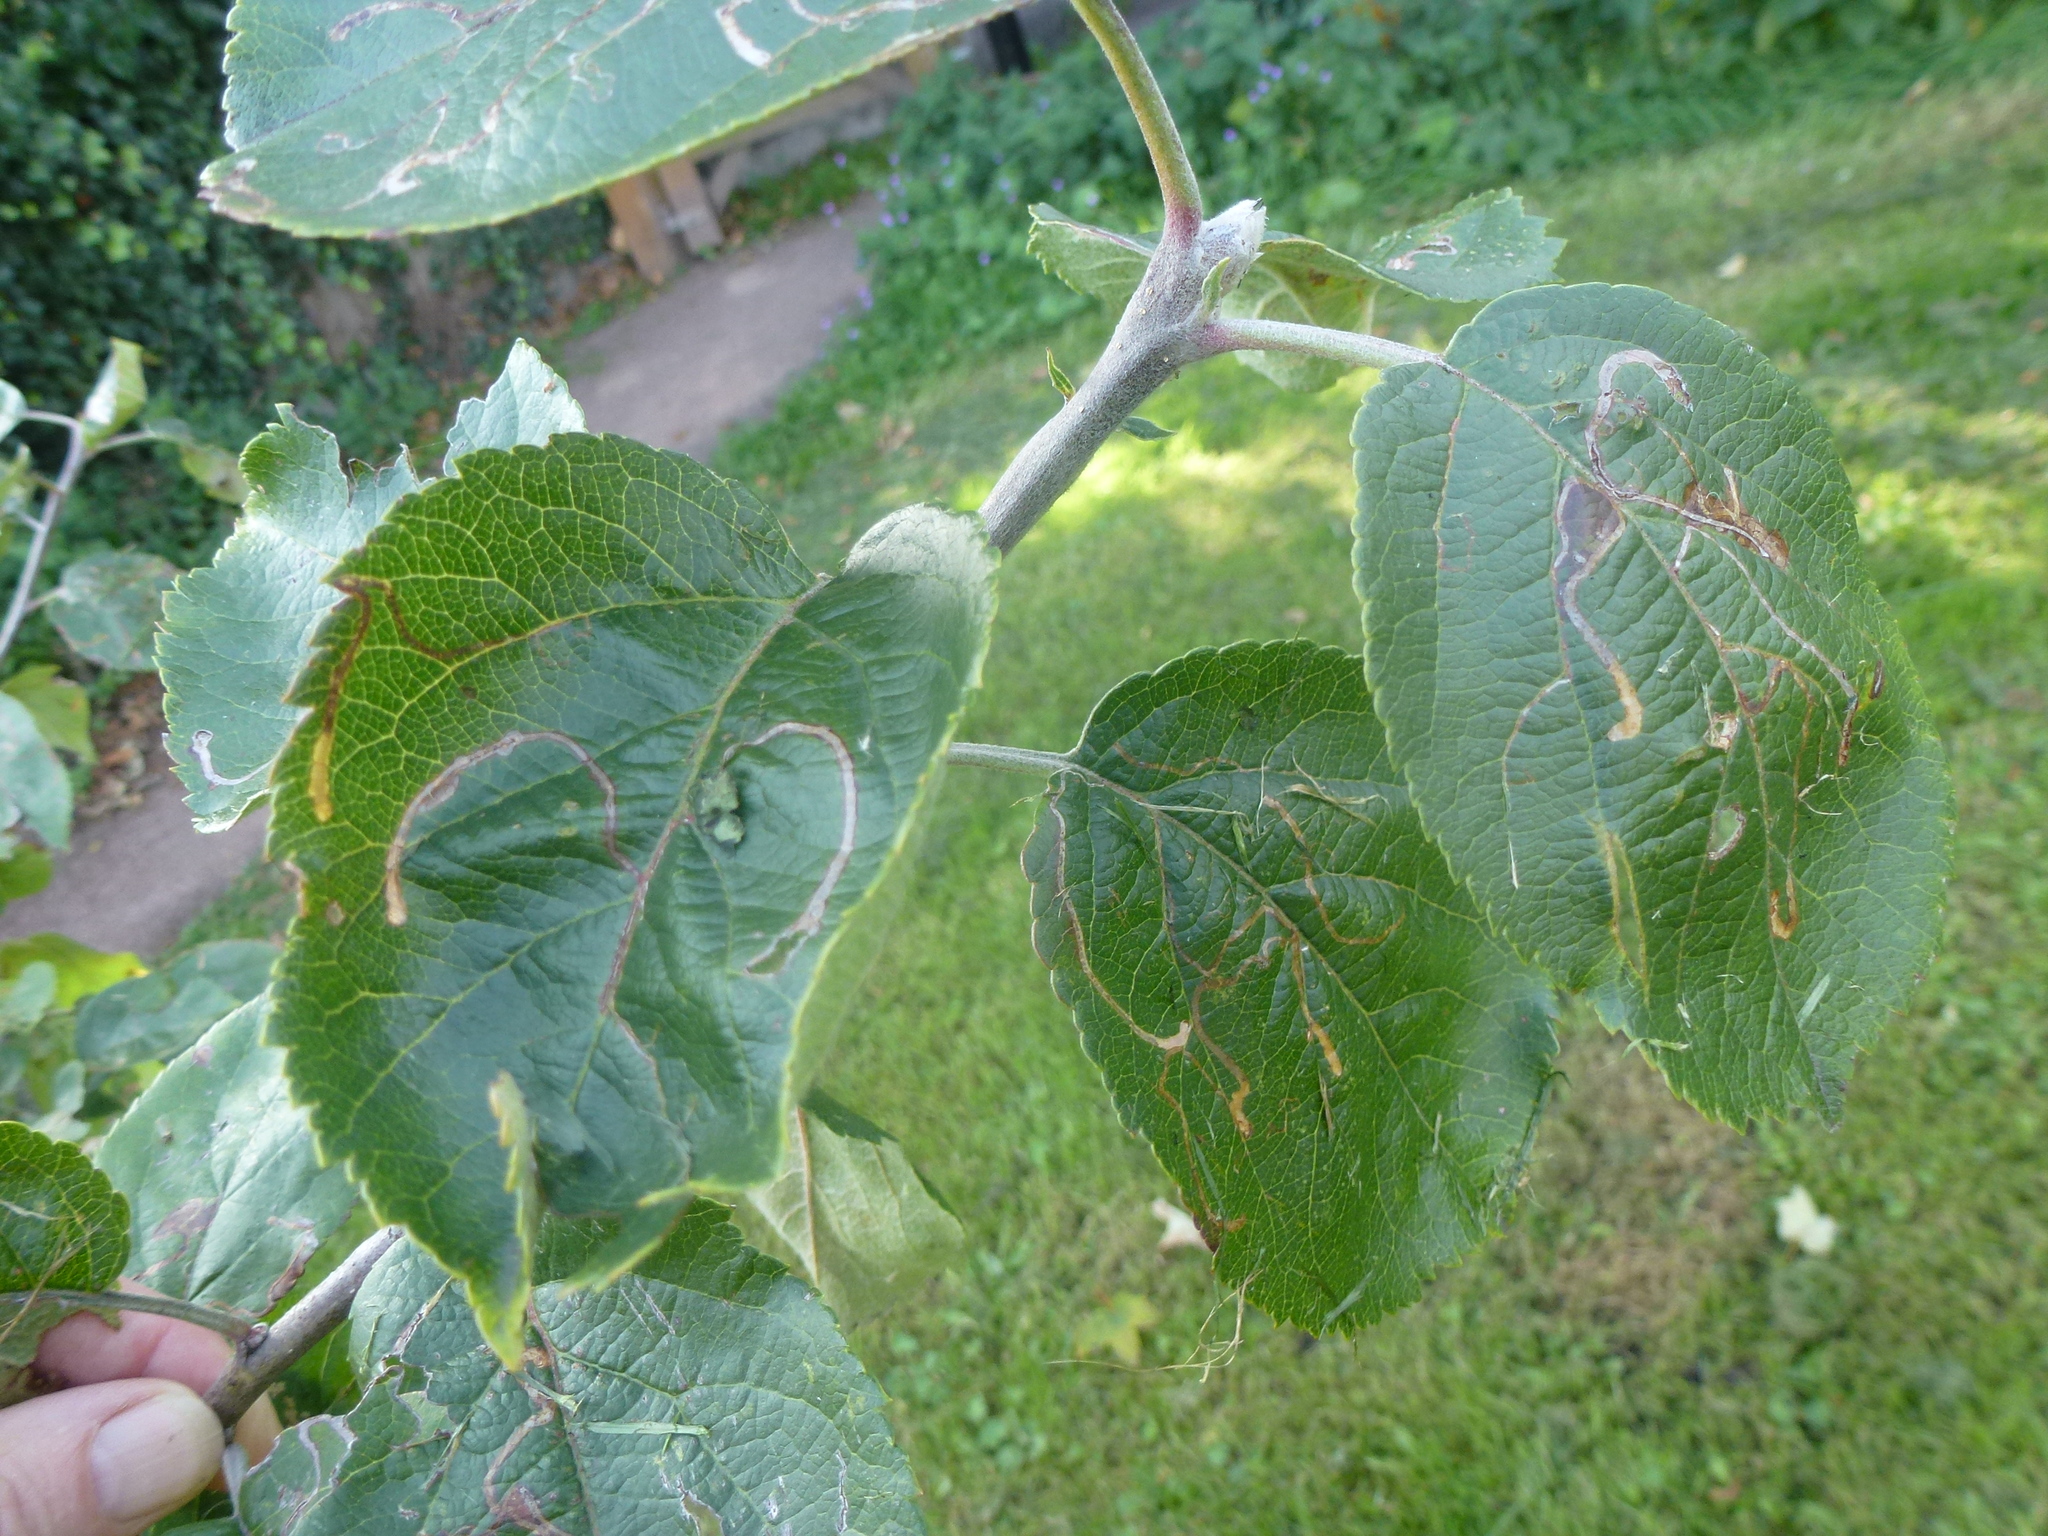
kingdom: Animalia
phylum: Arthropoda
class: Insecta
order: Lepidoptera
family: Lyonetiidae
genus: Lyonetia
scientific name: Lyonetia clerkella
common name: Apple leaf miner
